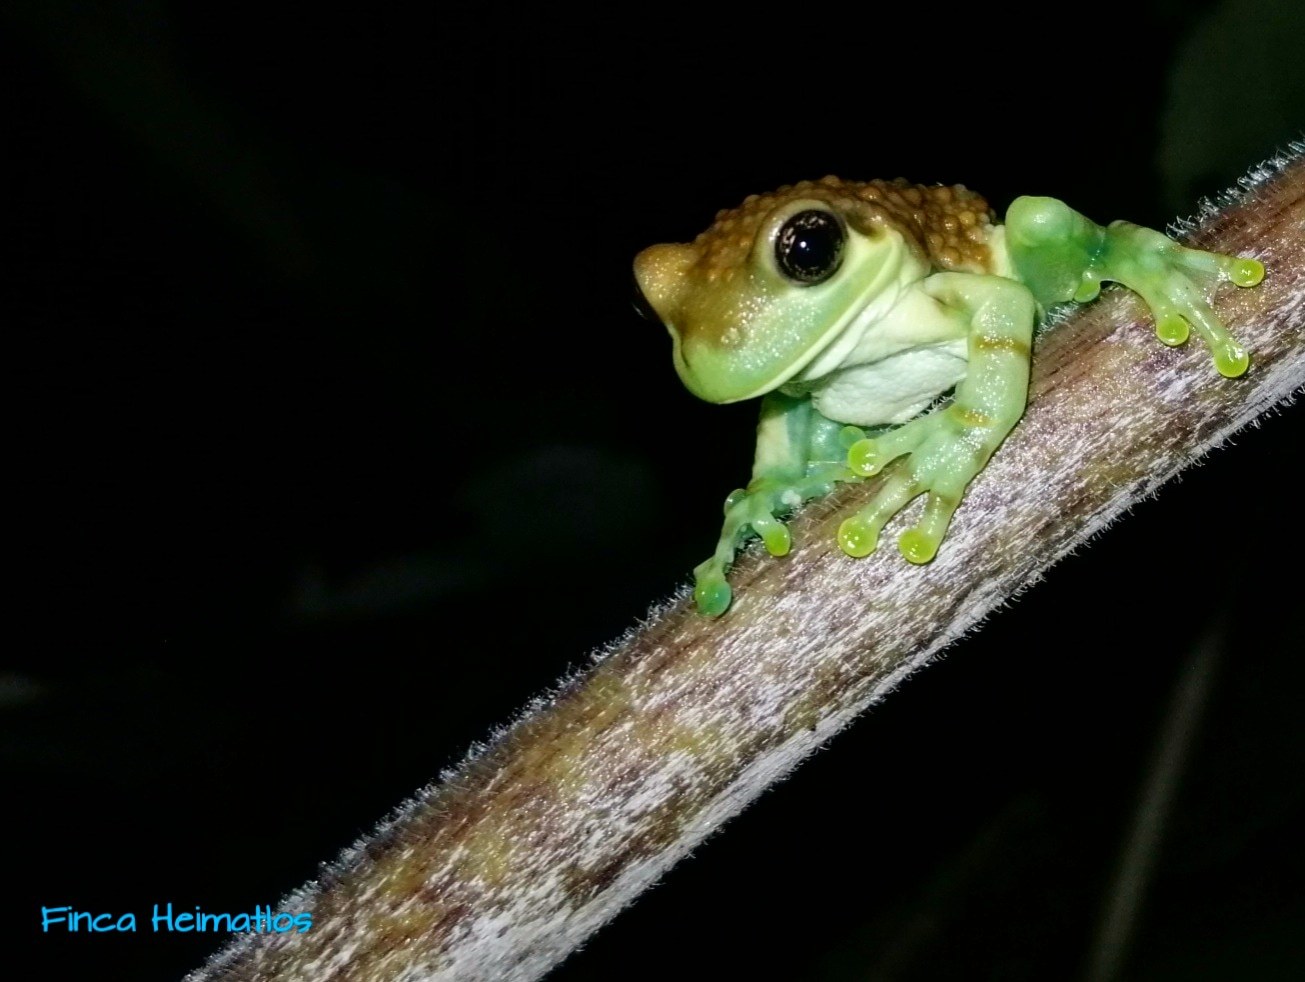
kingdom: Animalia
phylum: Chordata
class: Amphibia
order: Anura
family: Hylidae
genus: Trachycephalus
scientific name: Trachycephalus macrotis
